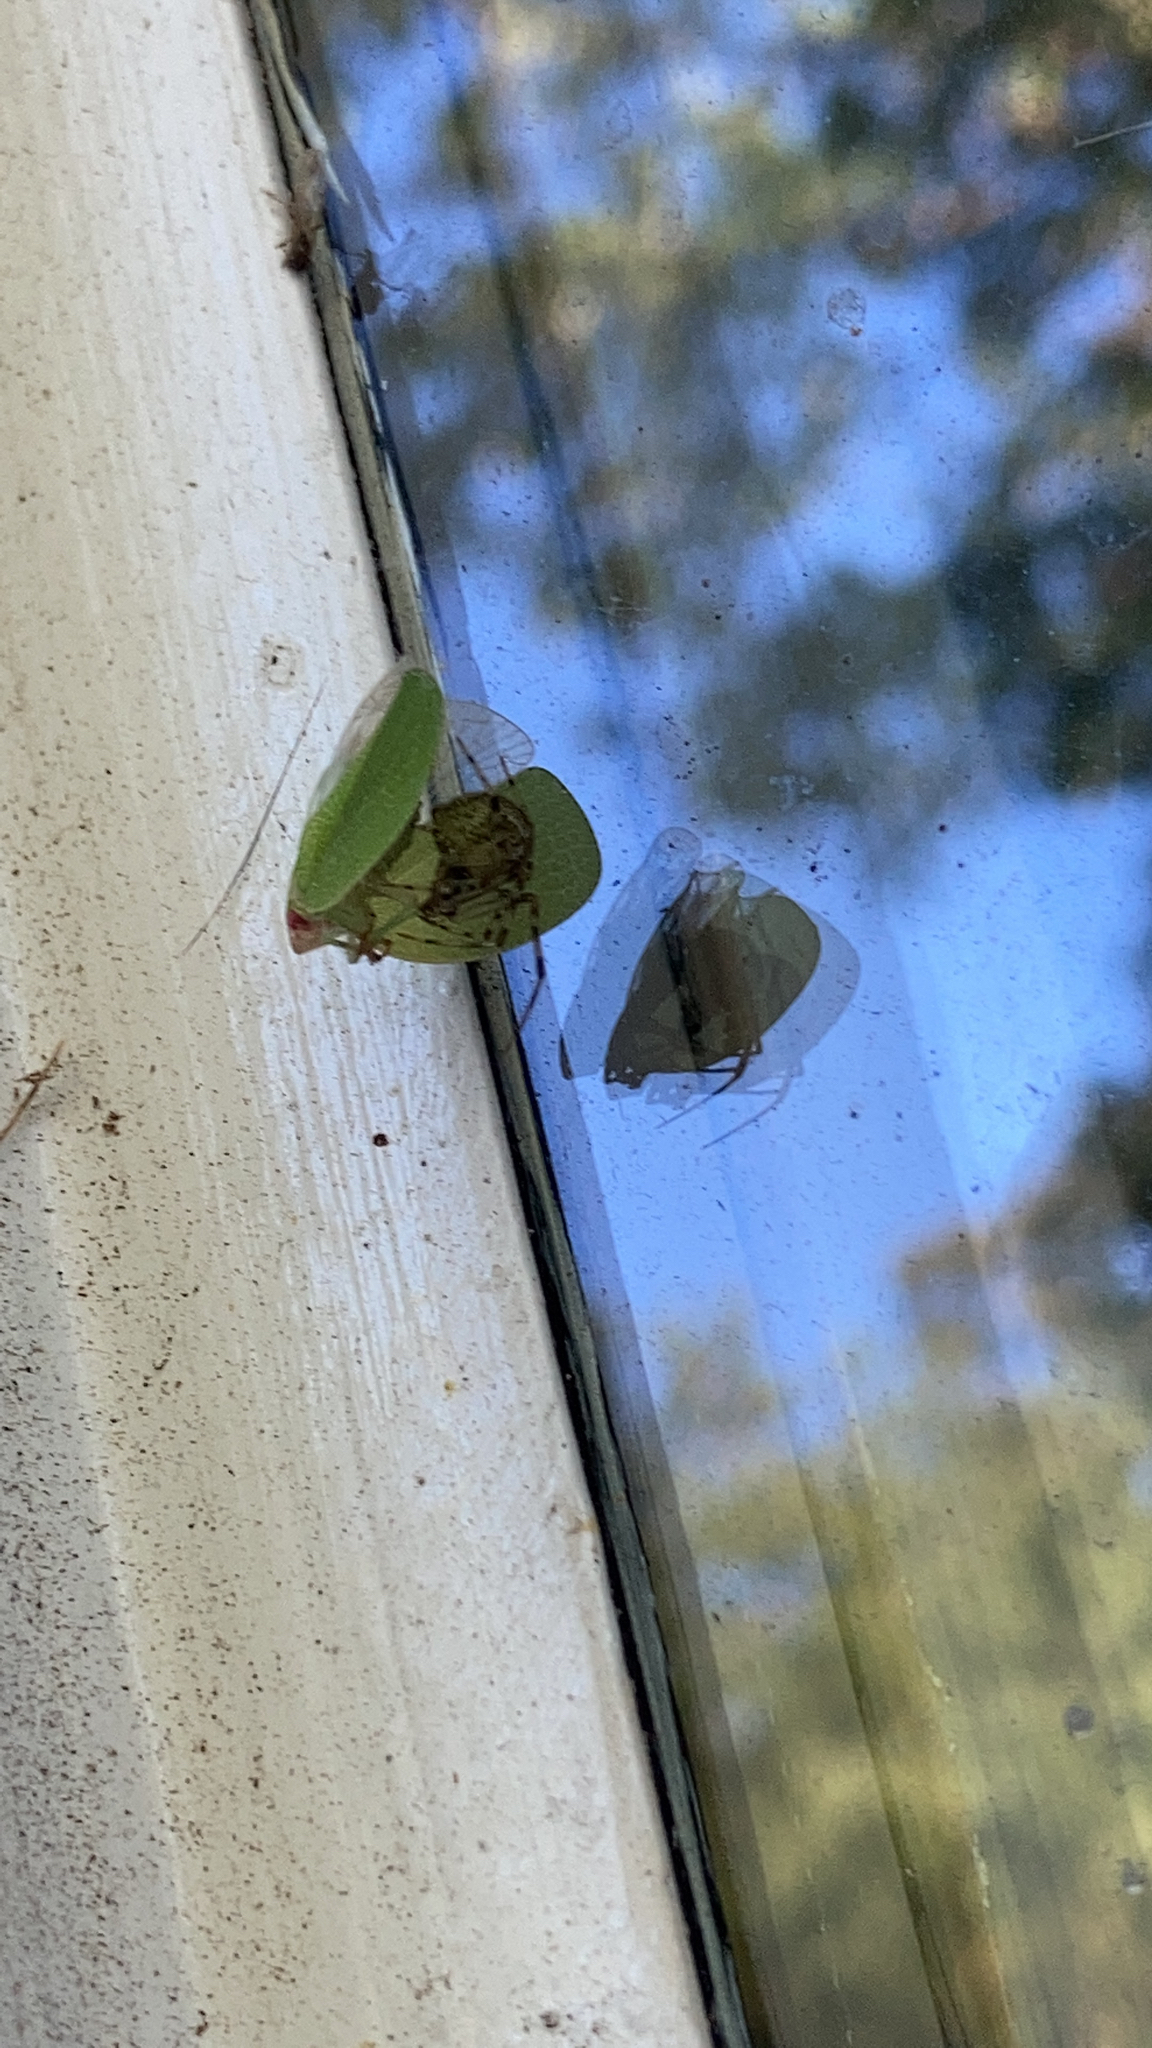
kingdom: Animalia
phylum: Arthropoda
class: Insecta
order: Hemiptera
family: Acanaloniidae
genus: Acanalonia
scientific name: Acanalonia conica
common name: Green cone-headed planthopper
